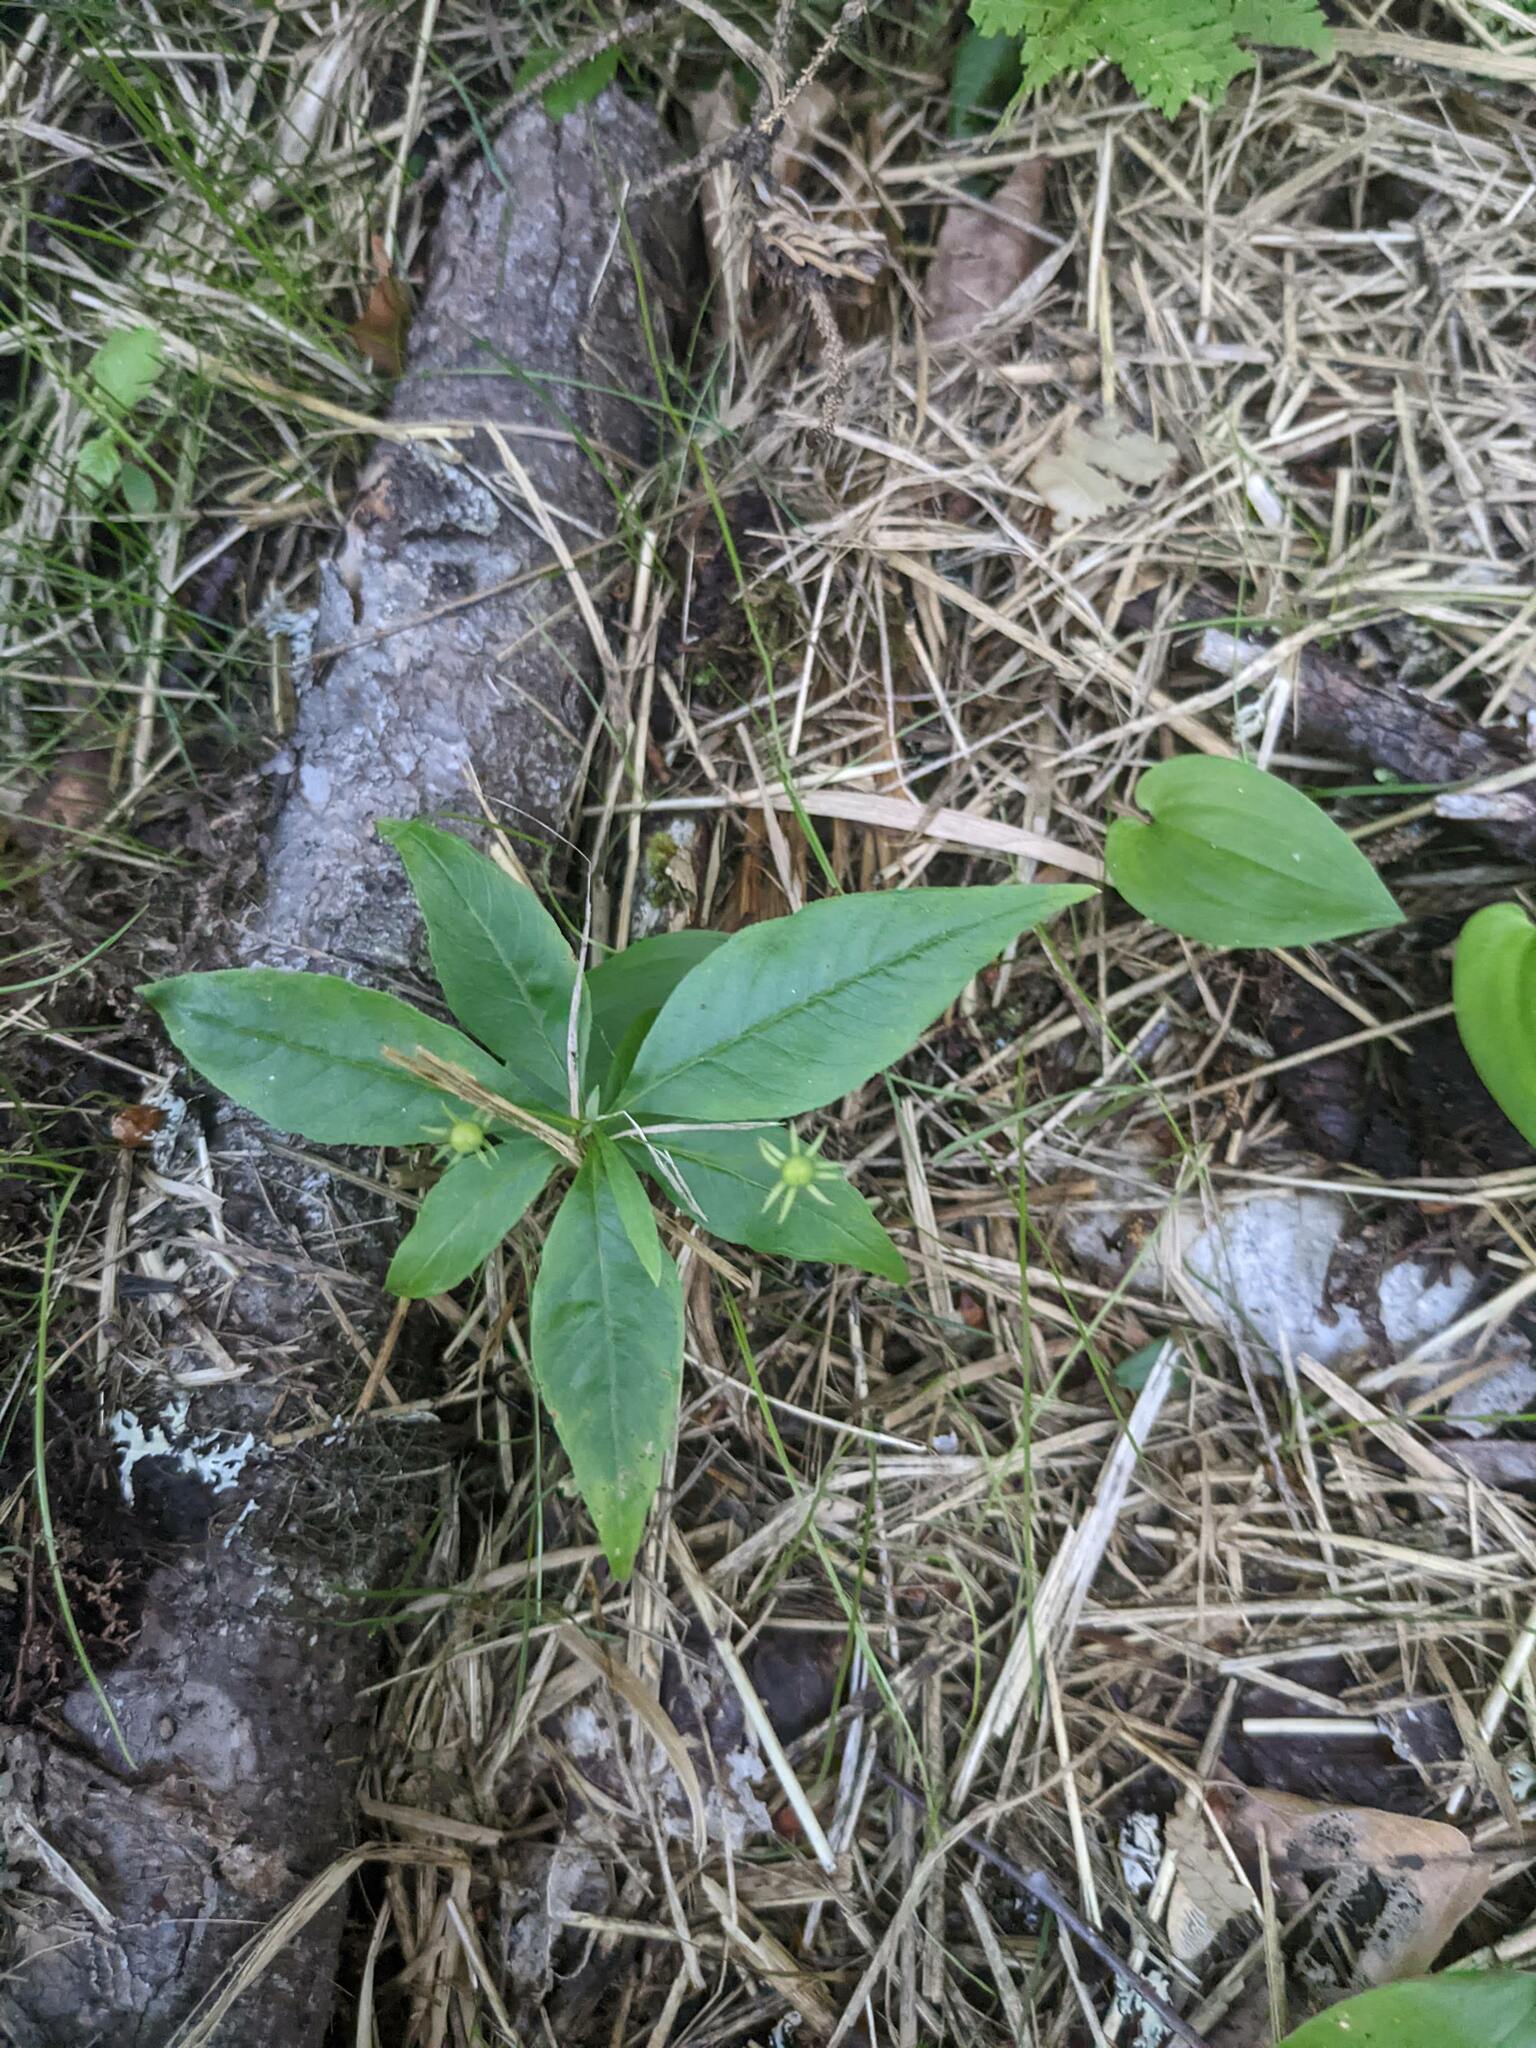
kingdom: Plantae
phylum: Tracheophyta
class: Magnoliopsida
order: Ericales
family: Primulaceae
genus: Lysimachia
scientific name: Lysimachia borealis
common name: American starflower
